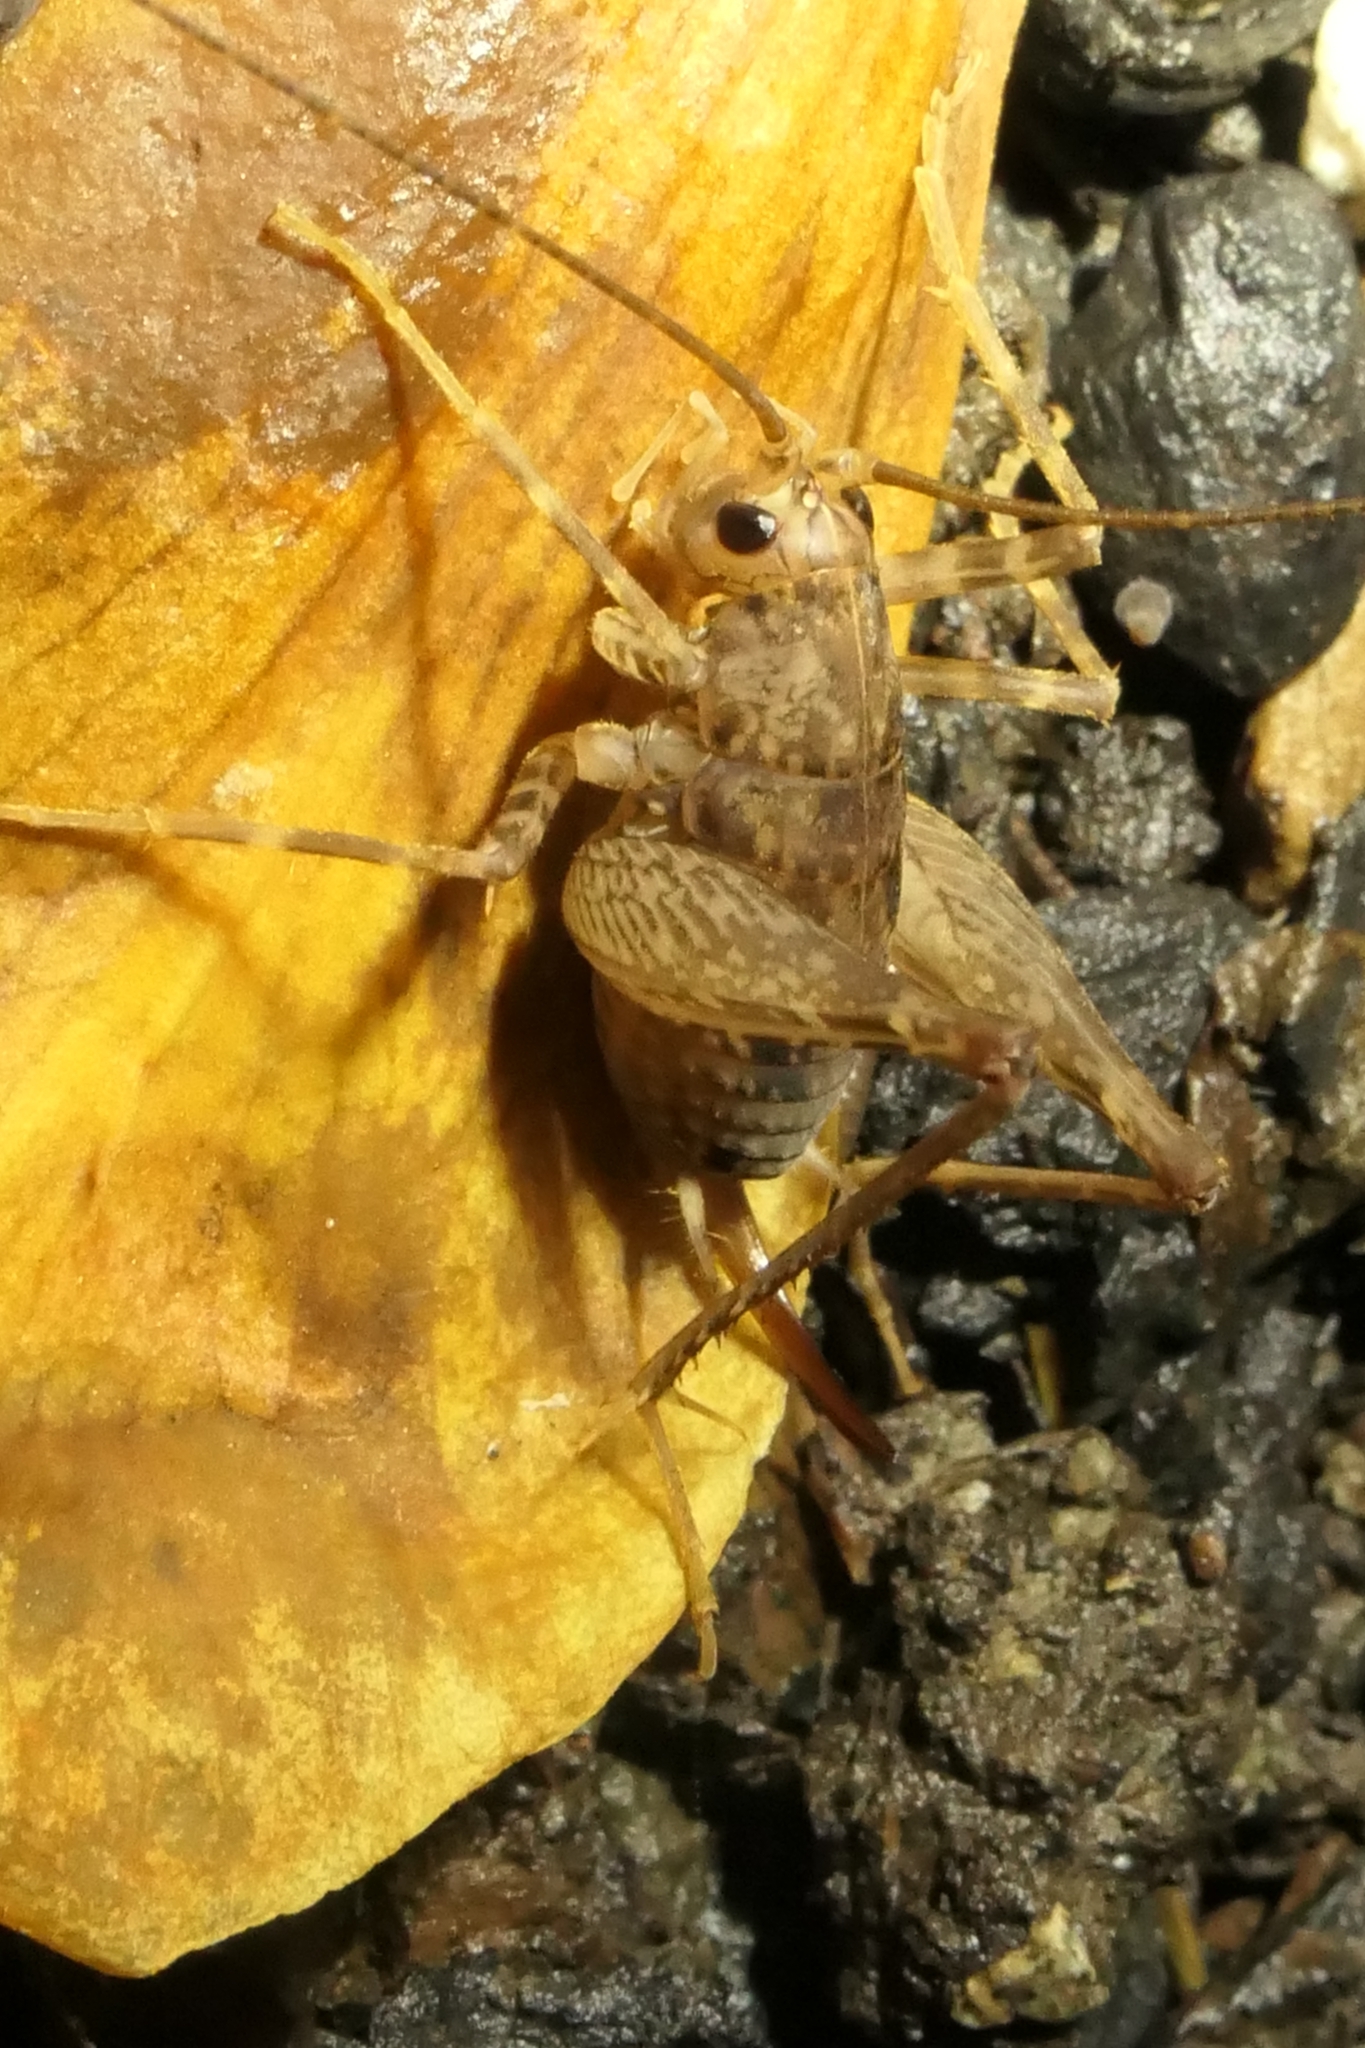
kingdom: Animalia
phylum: Arthropoda
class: Insecta
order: Orthoptera
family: Rhaphidophoridae
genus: Pleioplectron
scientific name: Pleioplectron simplex
